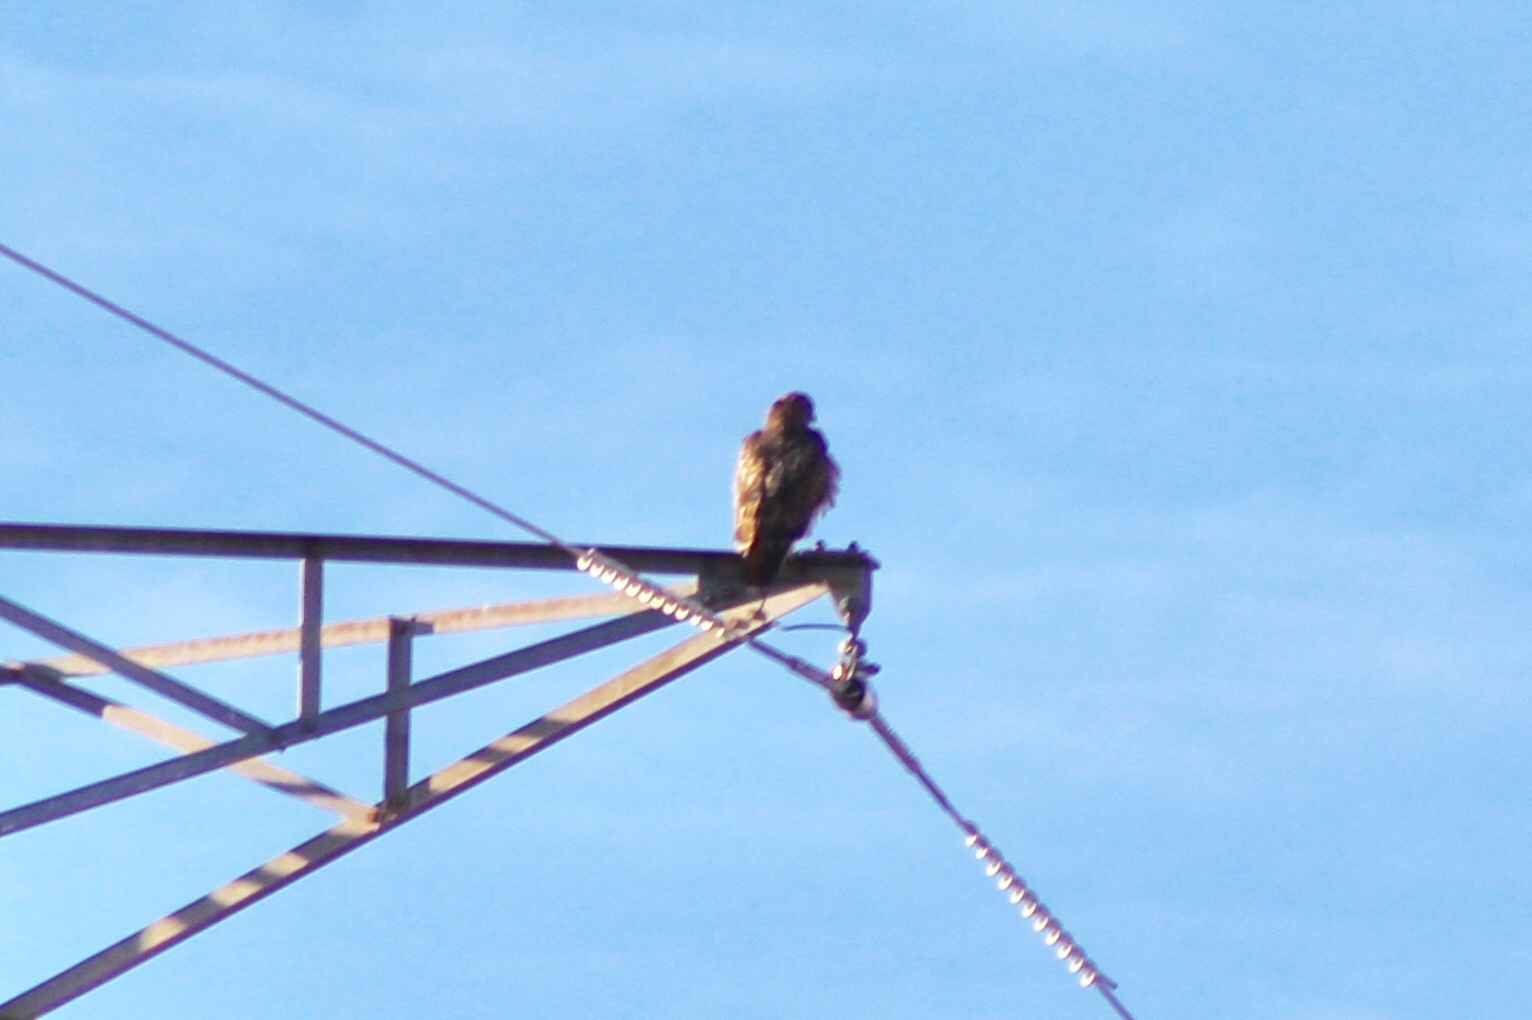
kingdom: Animalia
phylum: Chordata
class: Aves
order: Accipitriformes
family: Accipitridae
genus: Buteo
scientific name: Buteo jamaicensis
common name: Red-tailed hawk
